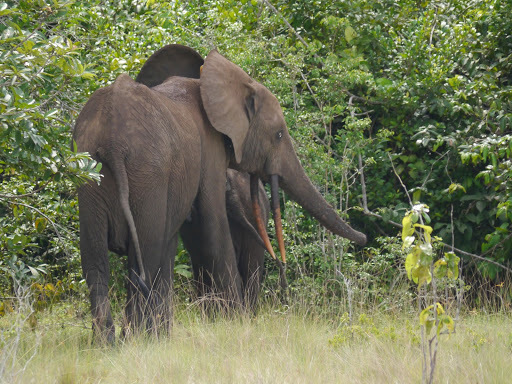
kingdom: Animalia
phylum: Chordata
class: Mammalia
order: Proboscidea
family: Elephantidae
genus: Loxodonta
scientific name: Loxodonta cyclotis
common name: African forest elephant
